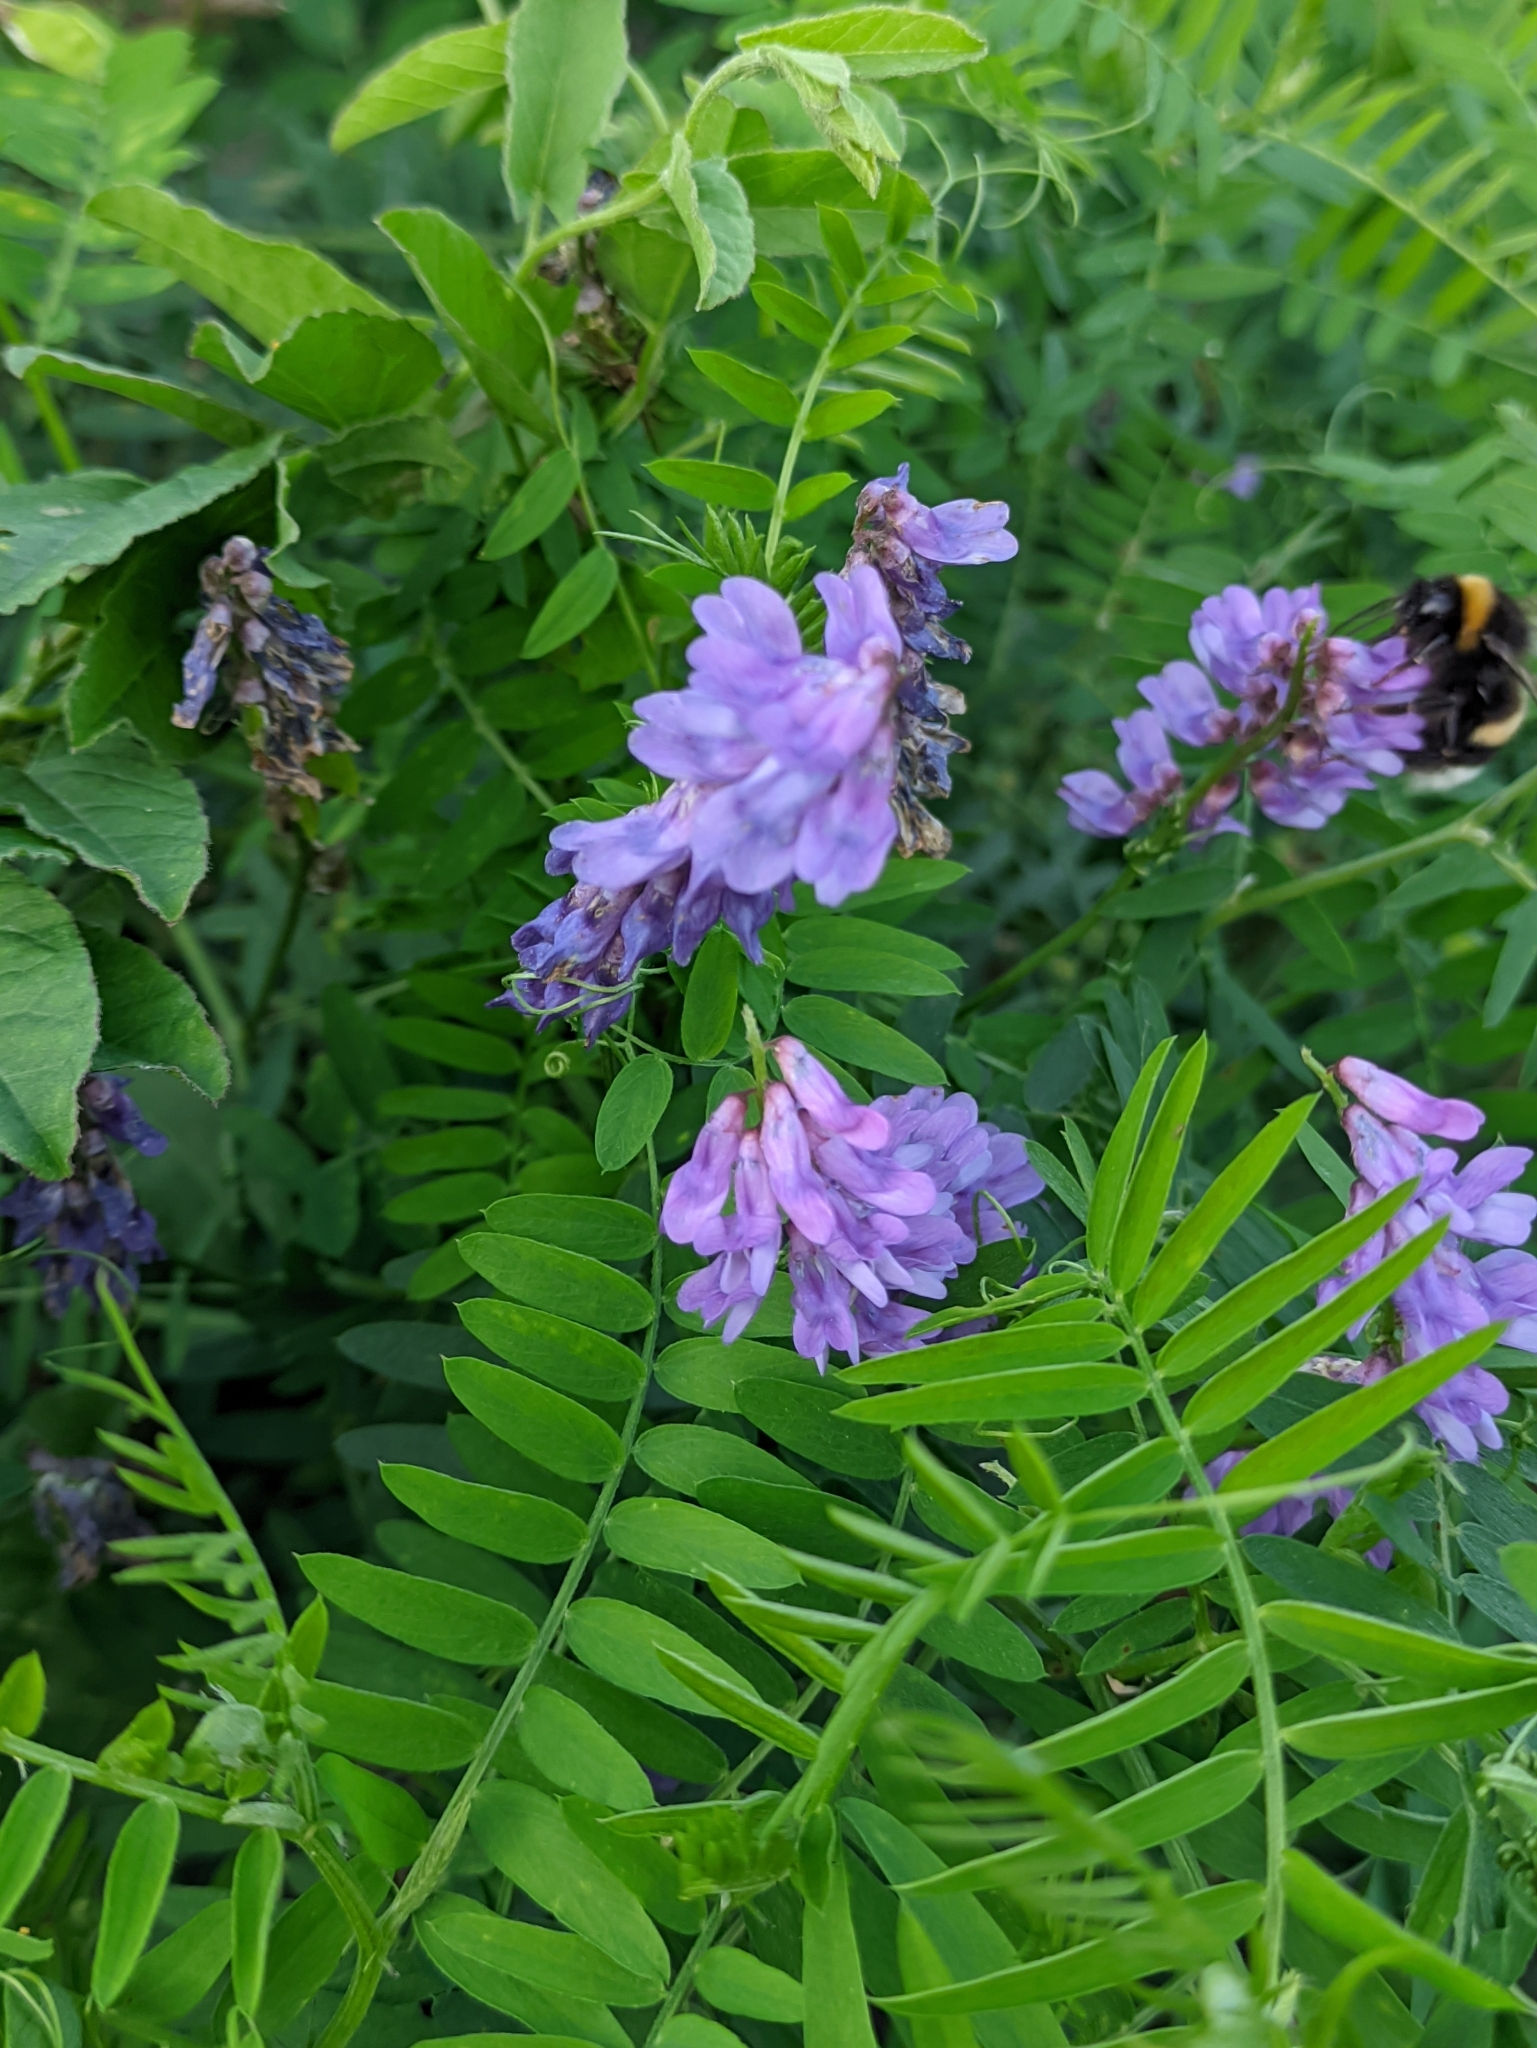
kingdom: Plantae
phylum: Tracheophyta
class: Magnoliopsida
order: Fabales
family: Fabaceae
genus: Vicia
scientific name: Vicia cracca
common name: Bird vetch
